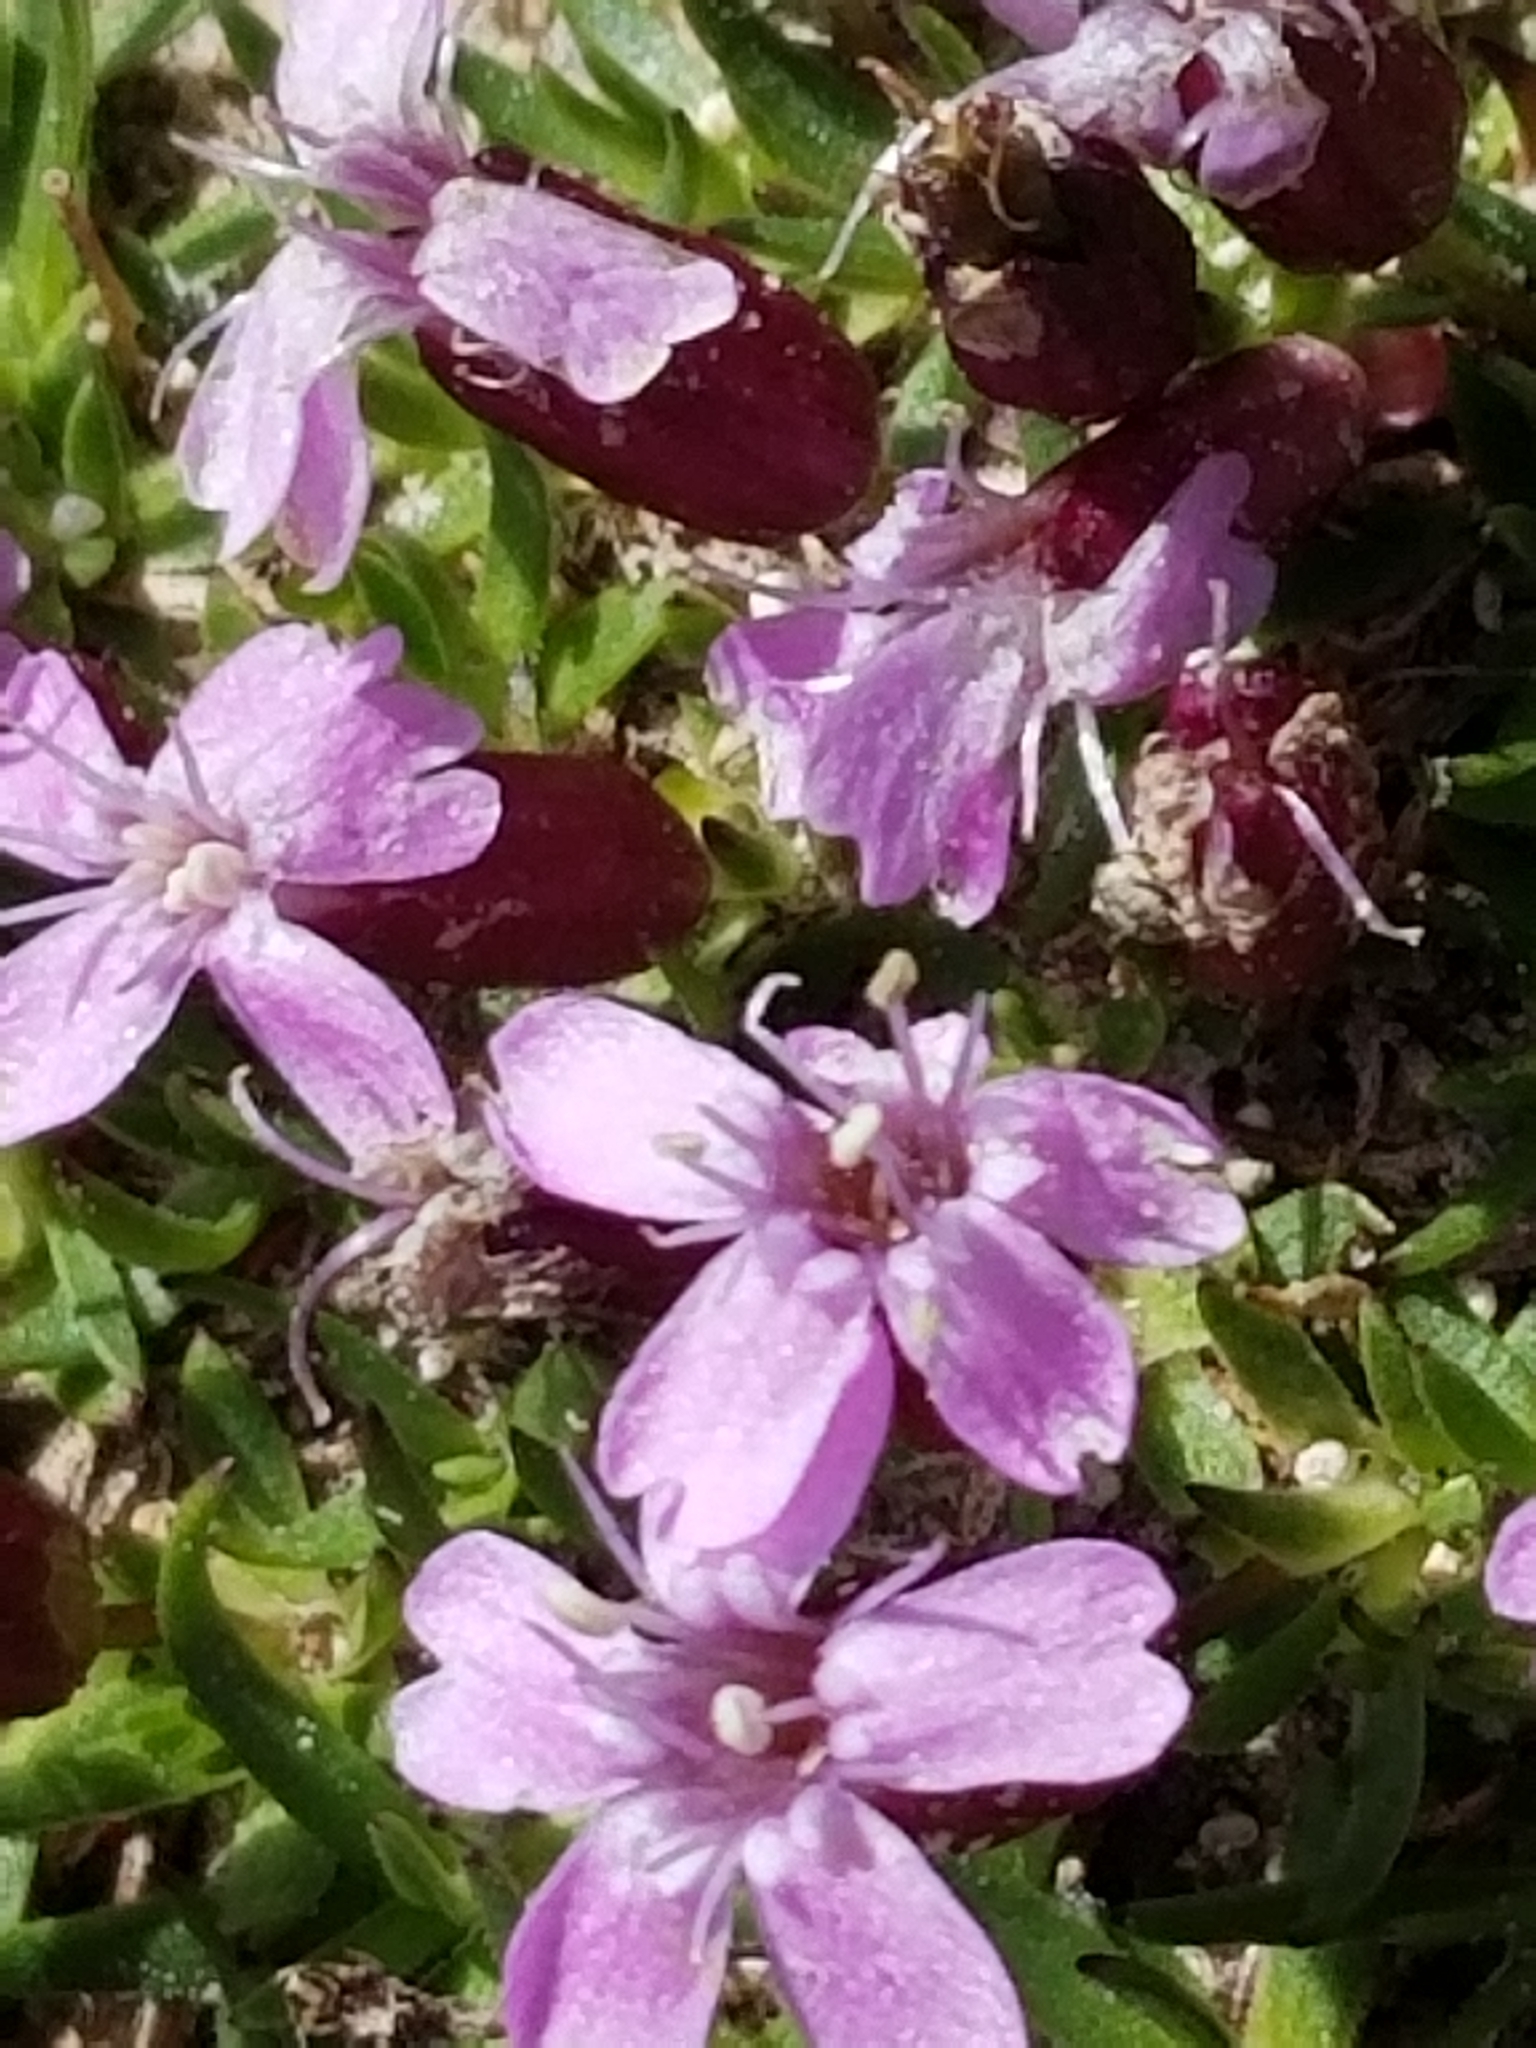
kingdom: Plantae
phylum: Tracheophyta
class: Magnoliopsida
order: Caryophyllales
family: Caryophyllaceae
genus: Silene
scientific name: Silene acaulis
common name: Moss campion
